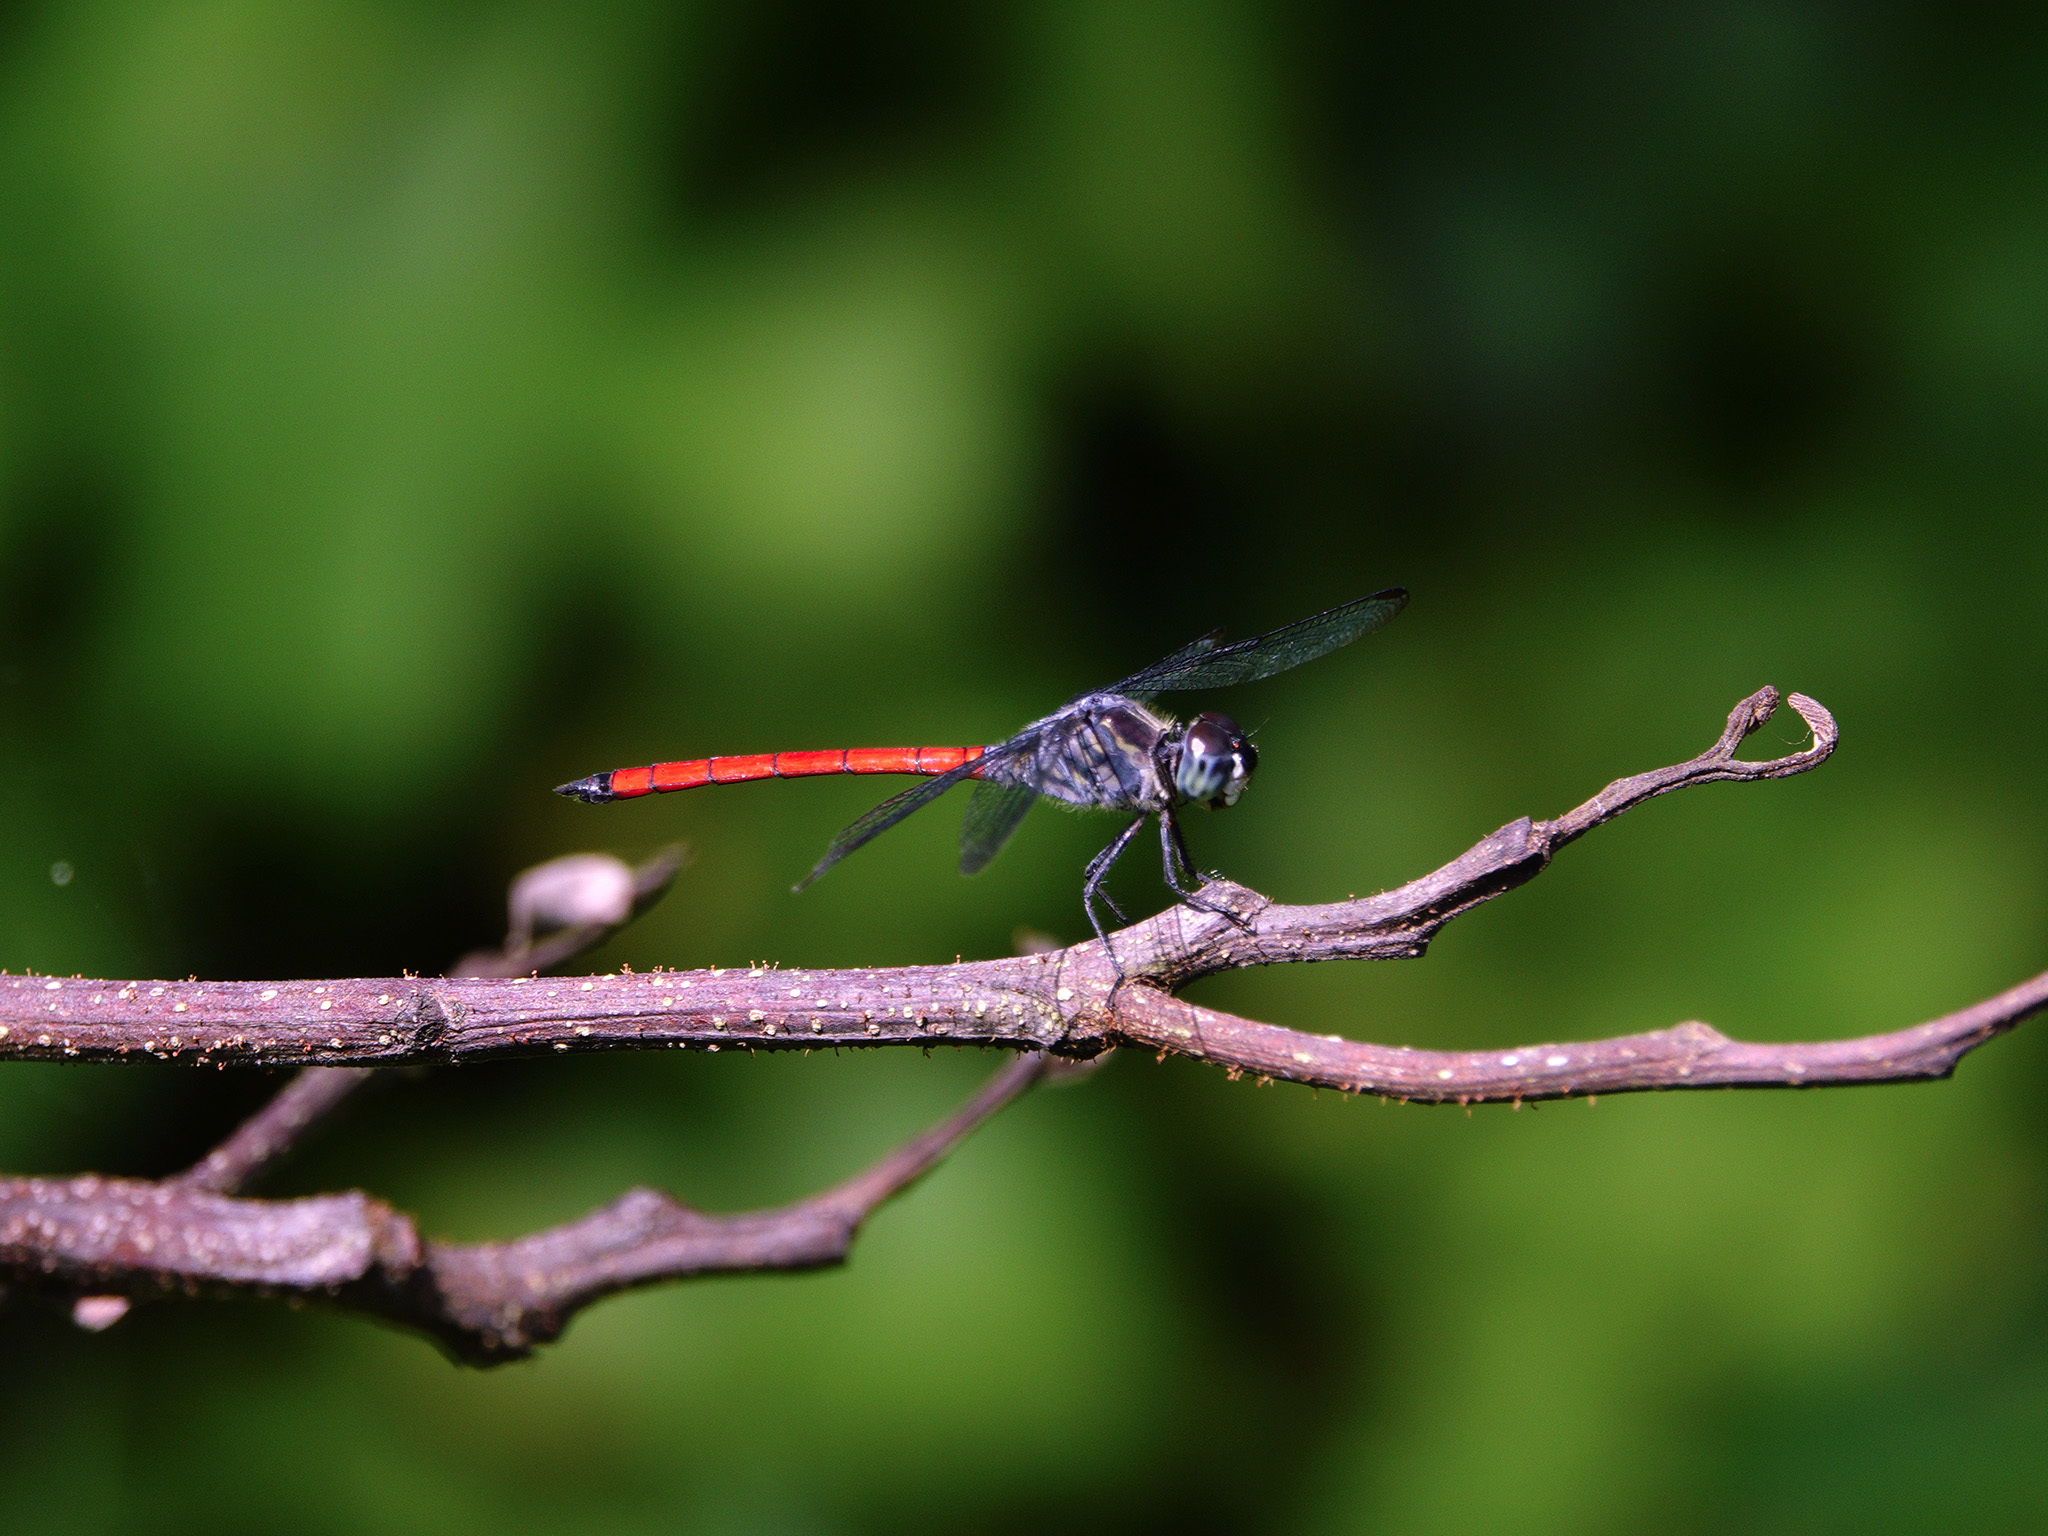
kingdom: Animalia
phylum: Arthropoda
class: Insecta
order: Odonata
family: Libellulidae
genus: Lathrecista
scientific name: Lathrecista asiatica
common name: Scarlet grenadier
